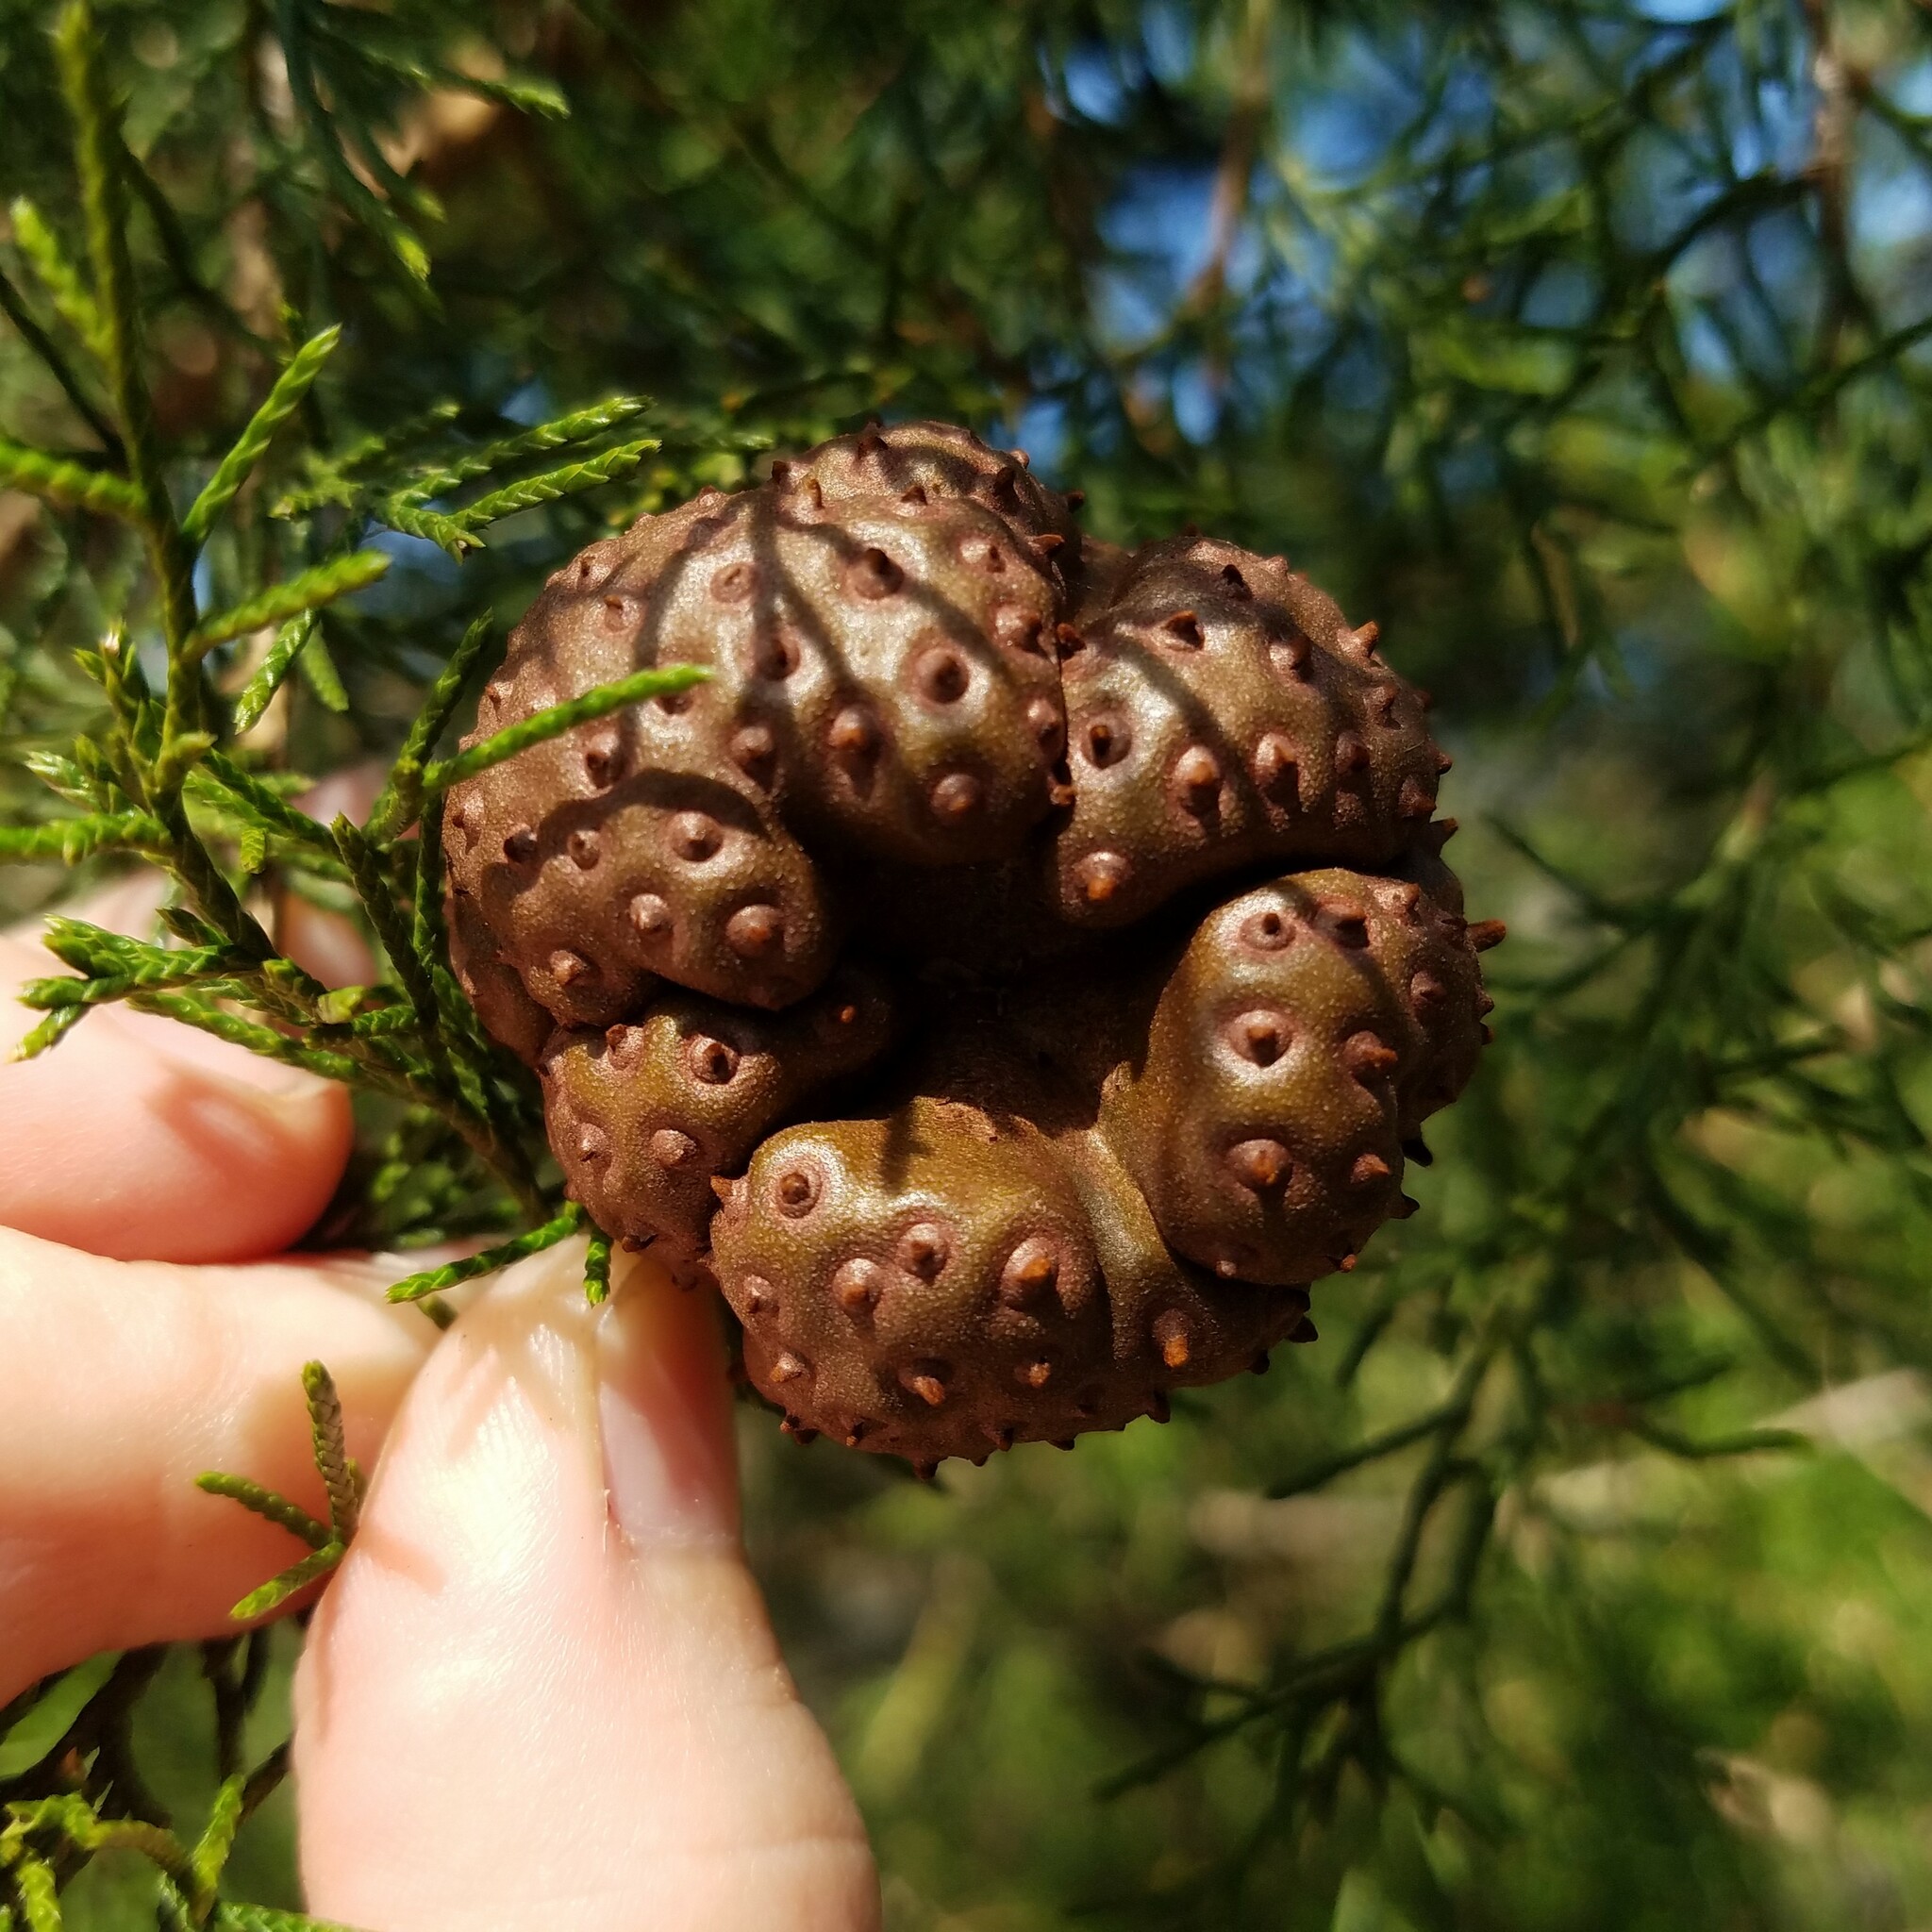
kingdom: Fungi
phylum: Basidiomycota
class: Pucciniomycetes
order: Pucciniales
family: Gymnosporangiaceae
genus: Gymnosporangium
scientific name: Gymnosporangium juniperi-virginianae
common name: Juniper-apple rust
